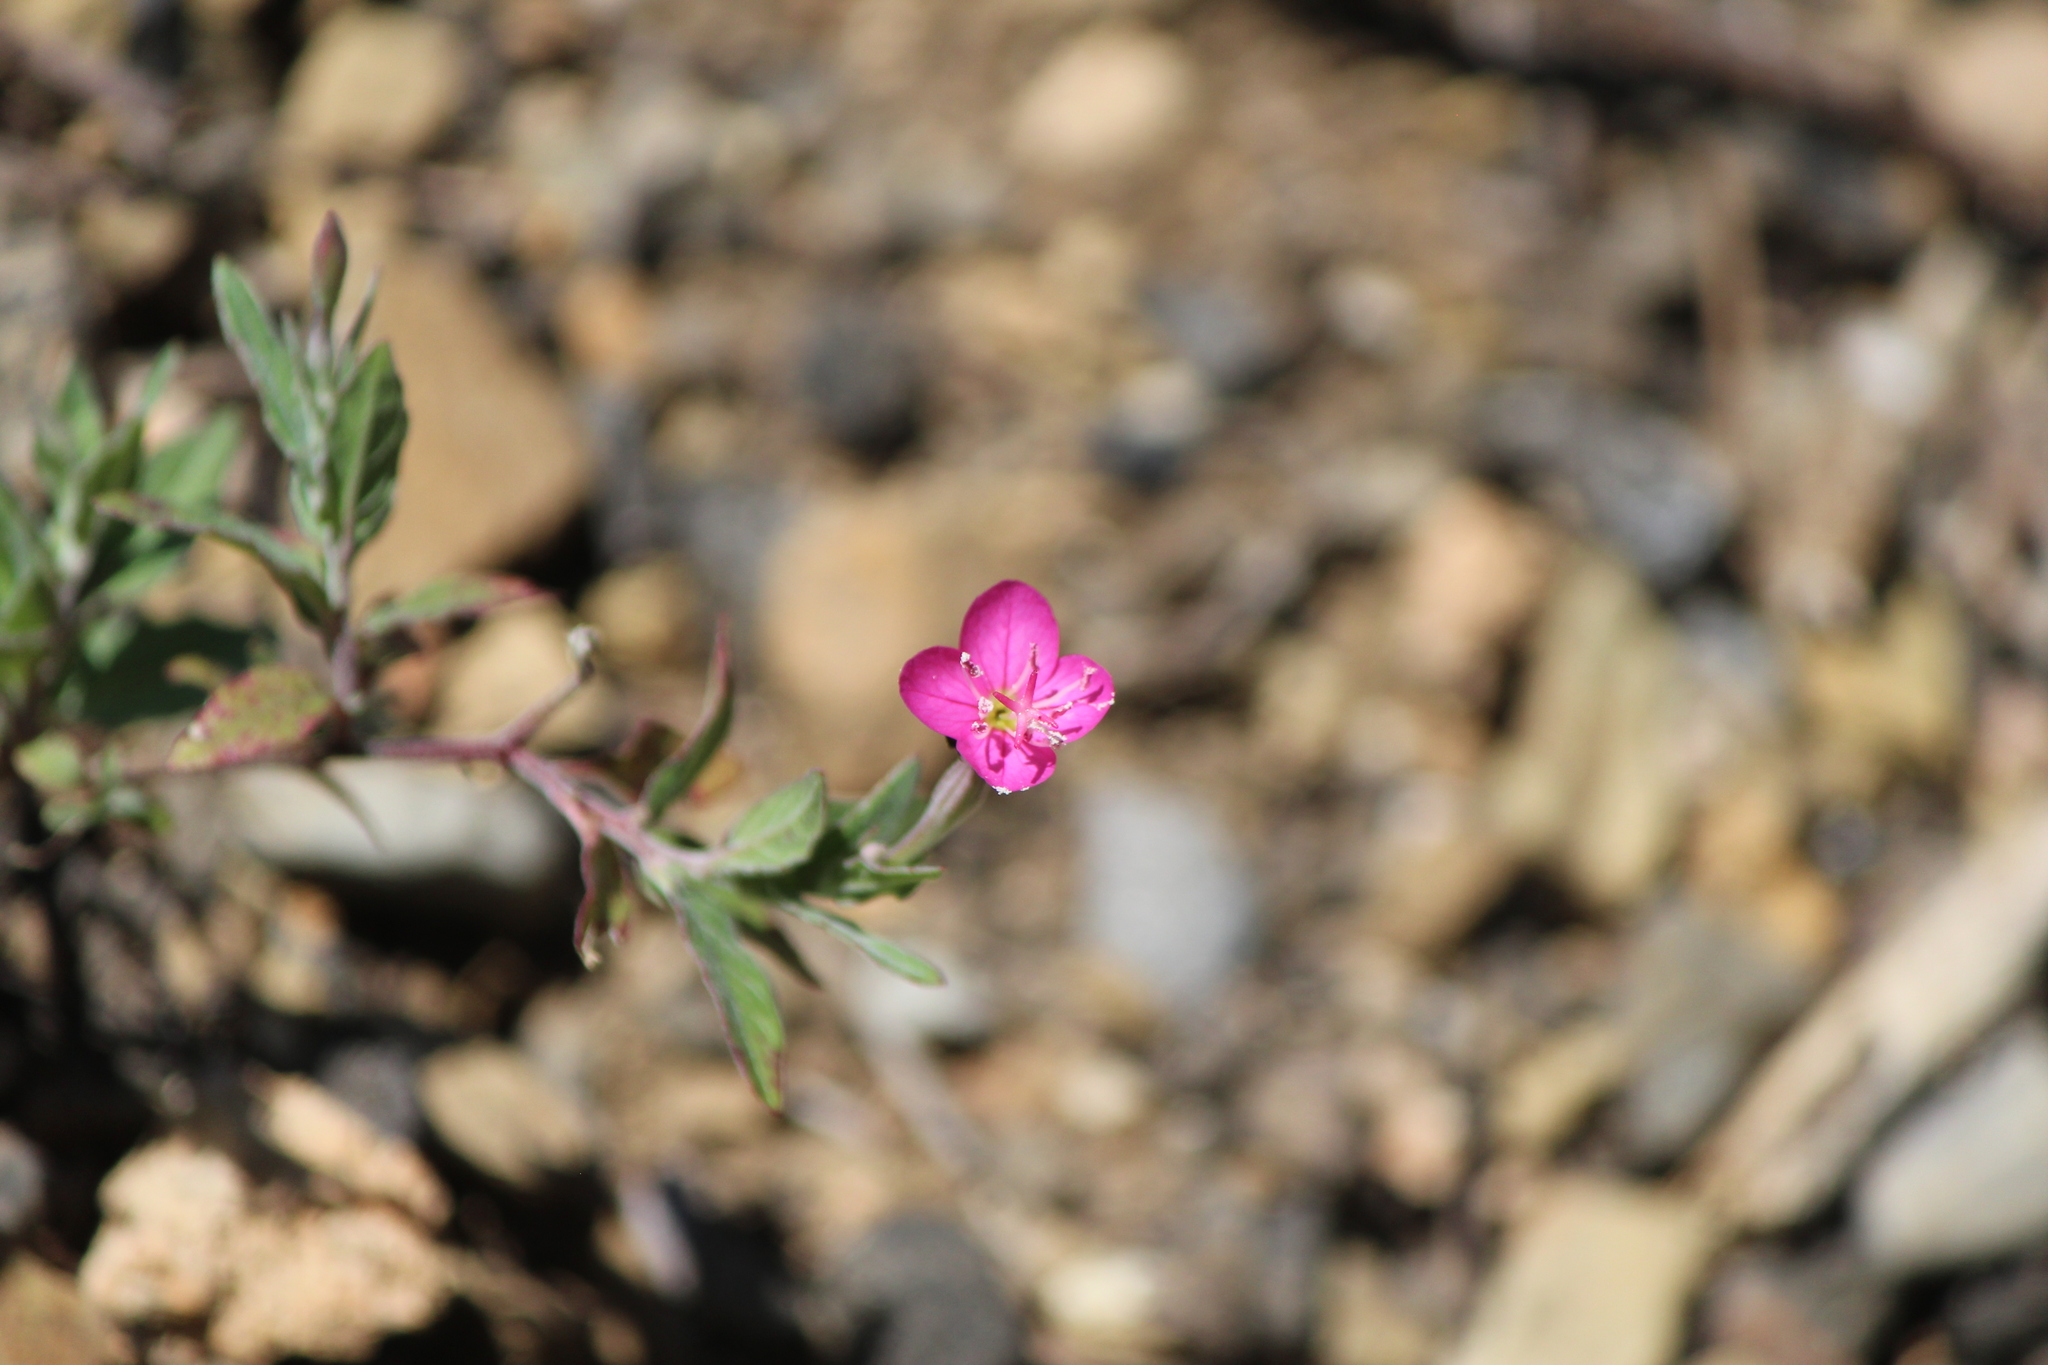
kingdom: Plantae
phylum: Tracheophyta
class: Magnoliopsida
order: Myrtales
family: Onagraceae
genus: Oenothera
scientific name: Oenothera rosea
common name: Rosy evening-primrose
